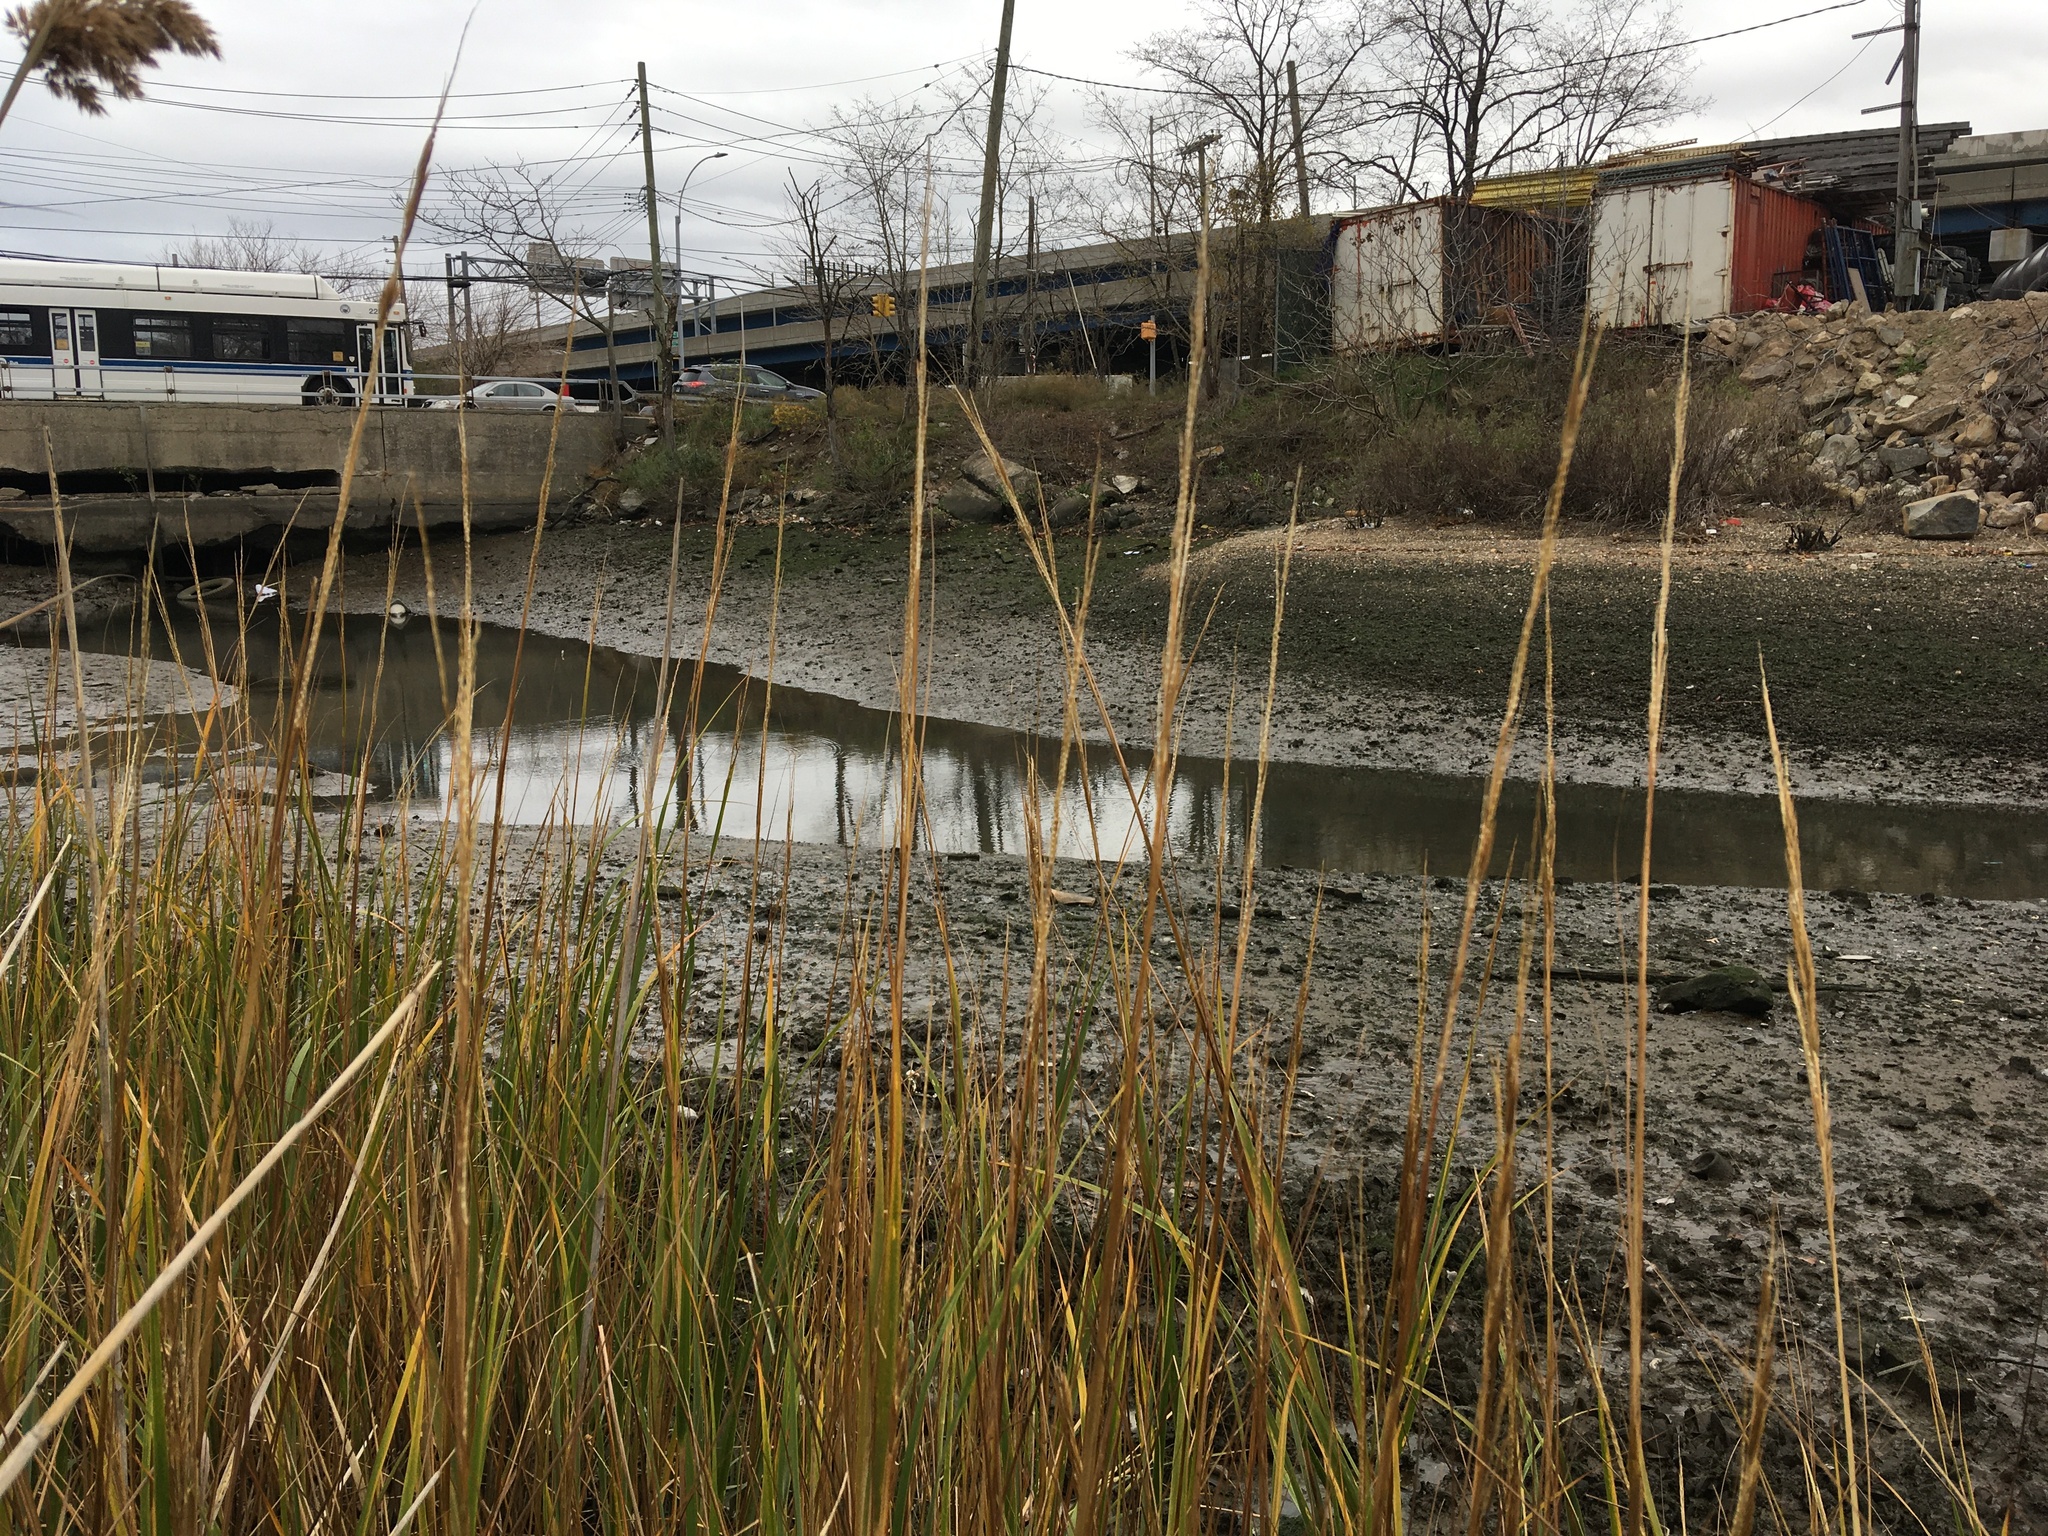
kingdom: Plantae
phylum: Tracheophyta
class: Liliopsida
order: Poales
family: Poaceae
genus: Sporobolus
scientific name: Sporobolus alterniflorus
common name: Atlantic cordgrass
